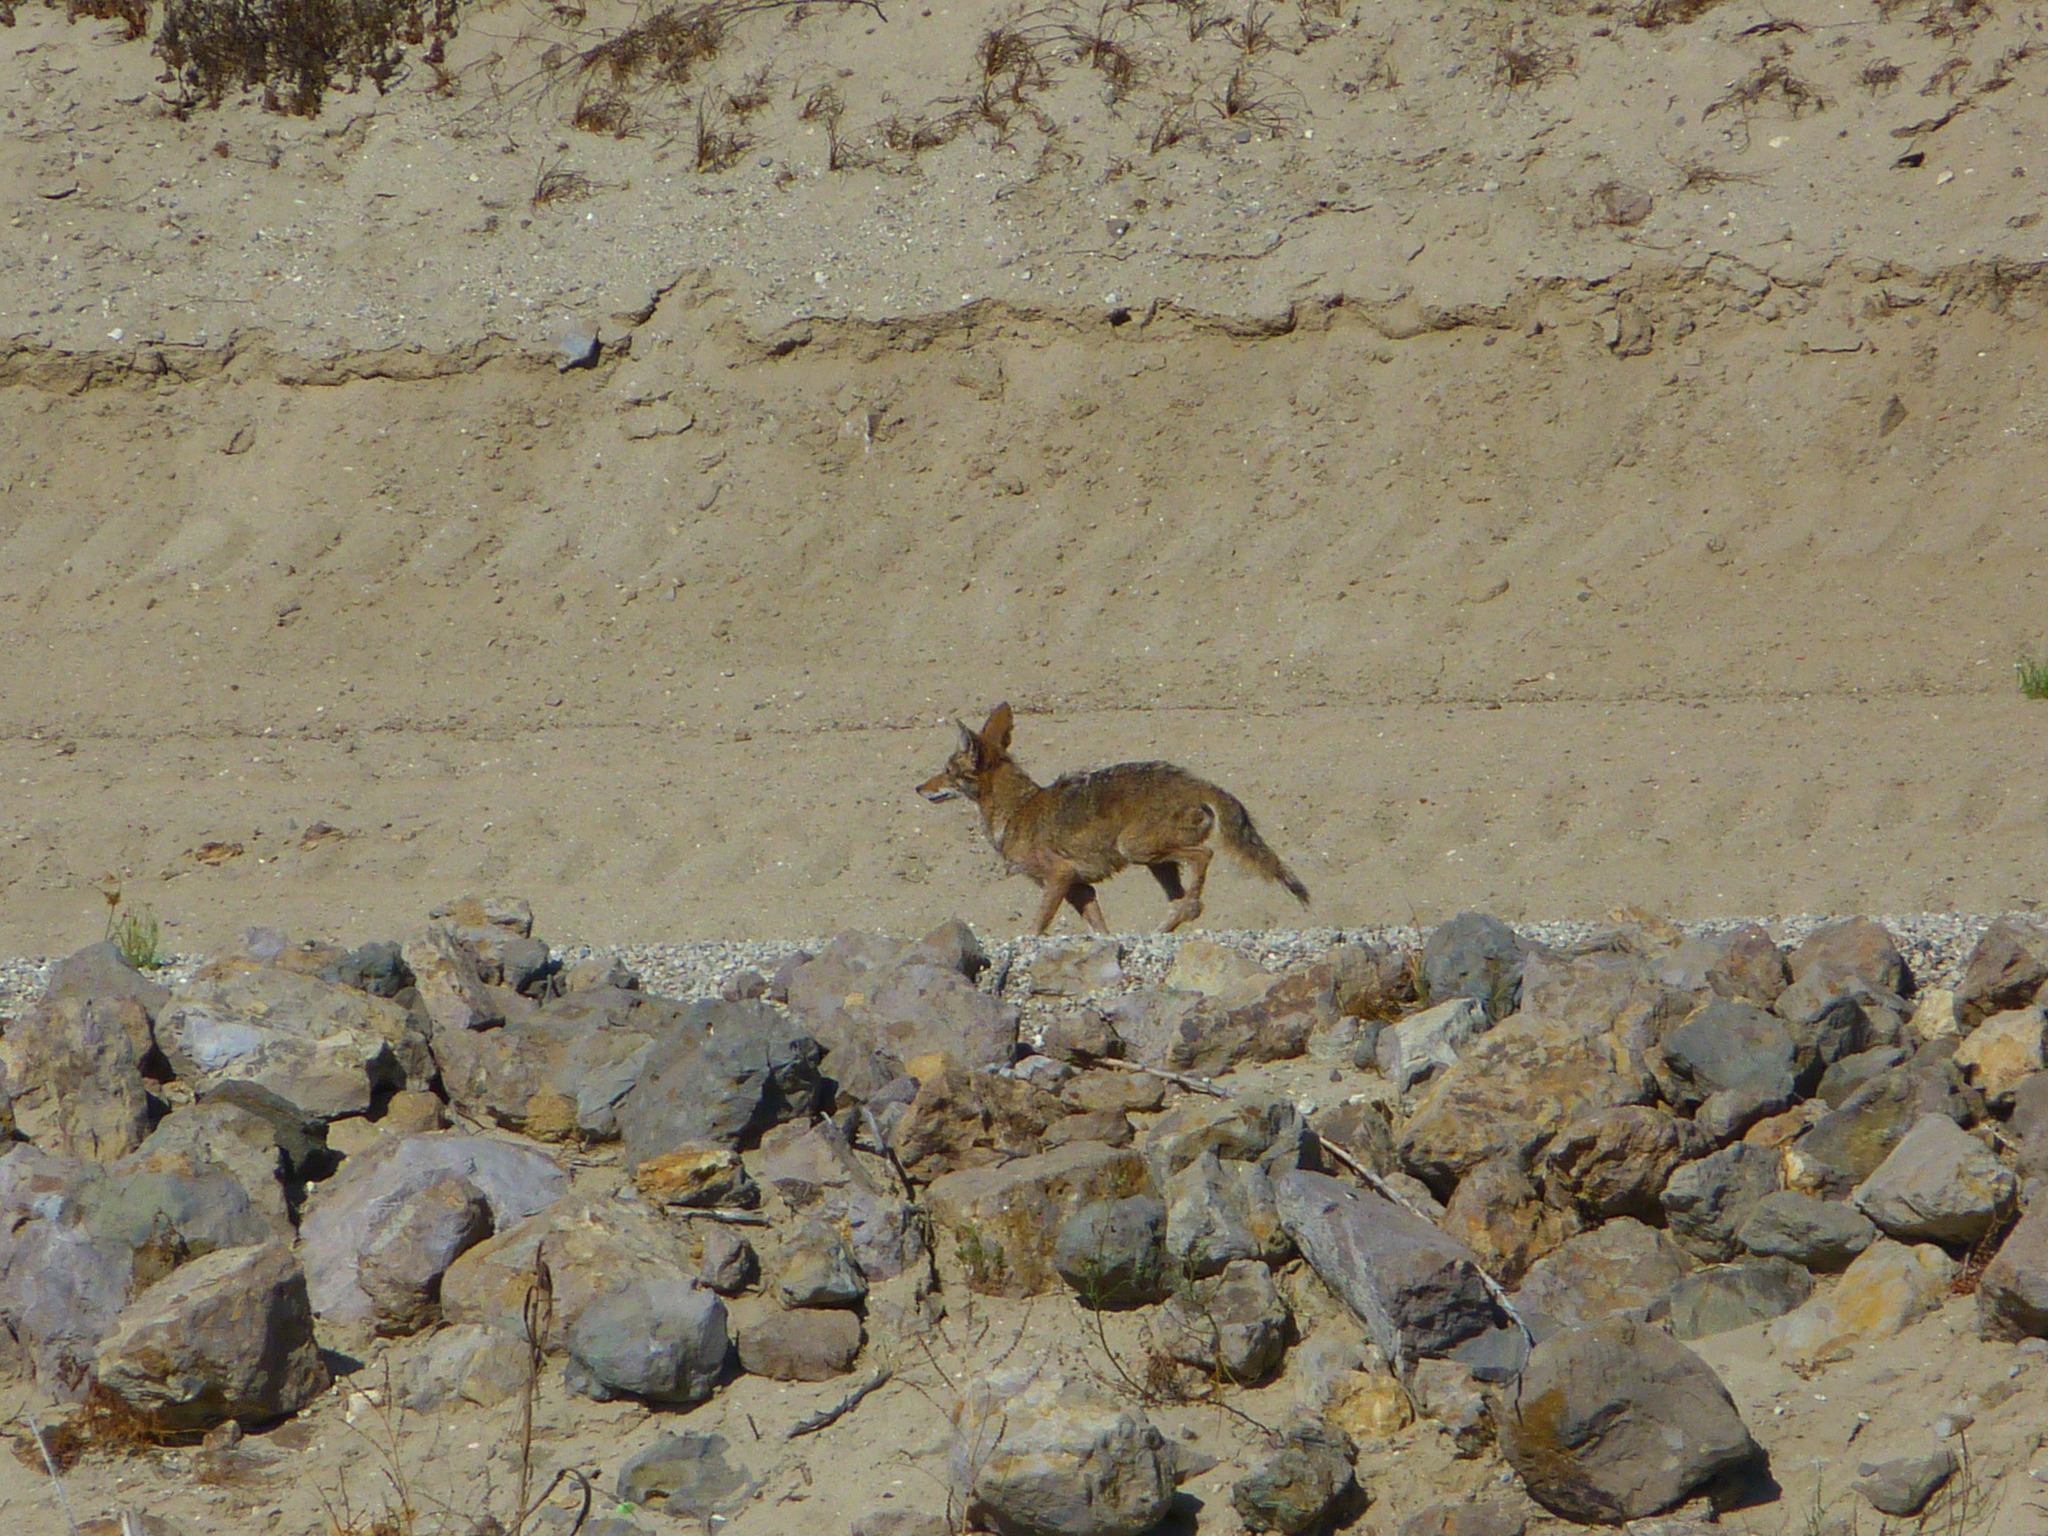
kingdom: Animalia
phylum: Chordata
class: Mammalia
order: Carnivora
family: Canidae
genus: Canis
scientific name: Canis latrans
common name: Coyote
